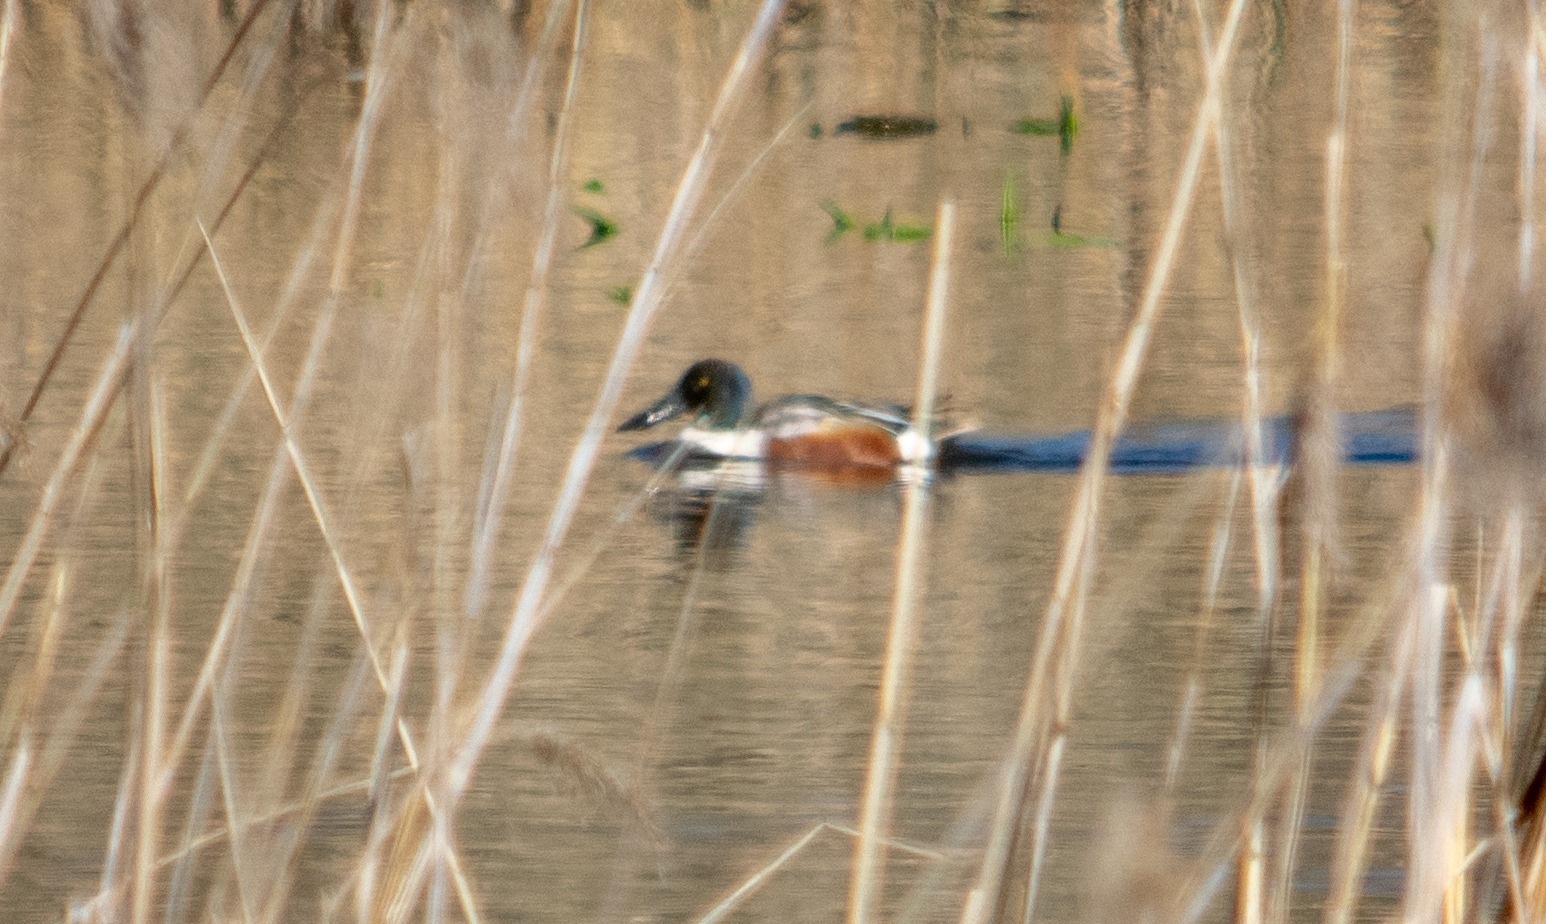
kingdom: Animalia
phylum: Chordata
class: Aves
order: Anseriformes
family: Anatidae
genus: Spatula
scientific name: Spatula clypeata
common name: Northern shoveler
